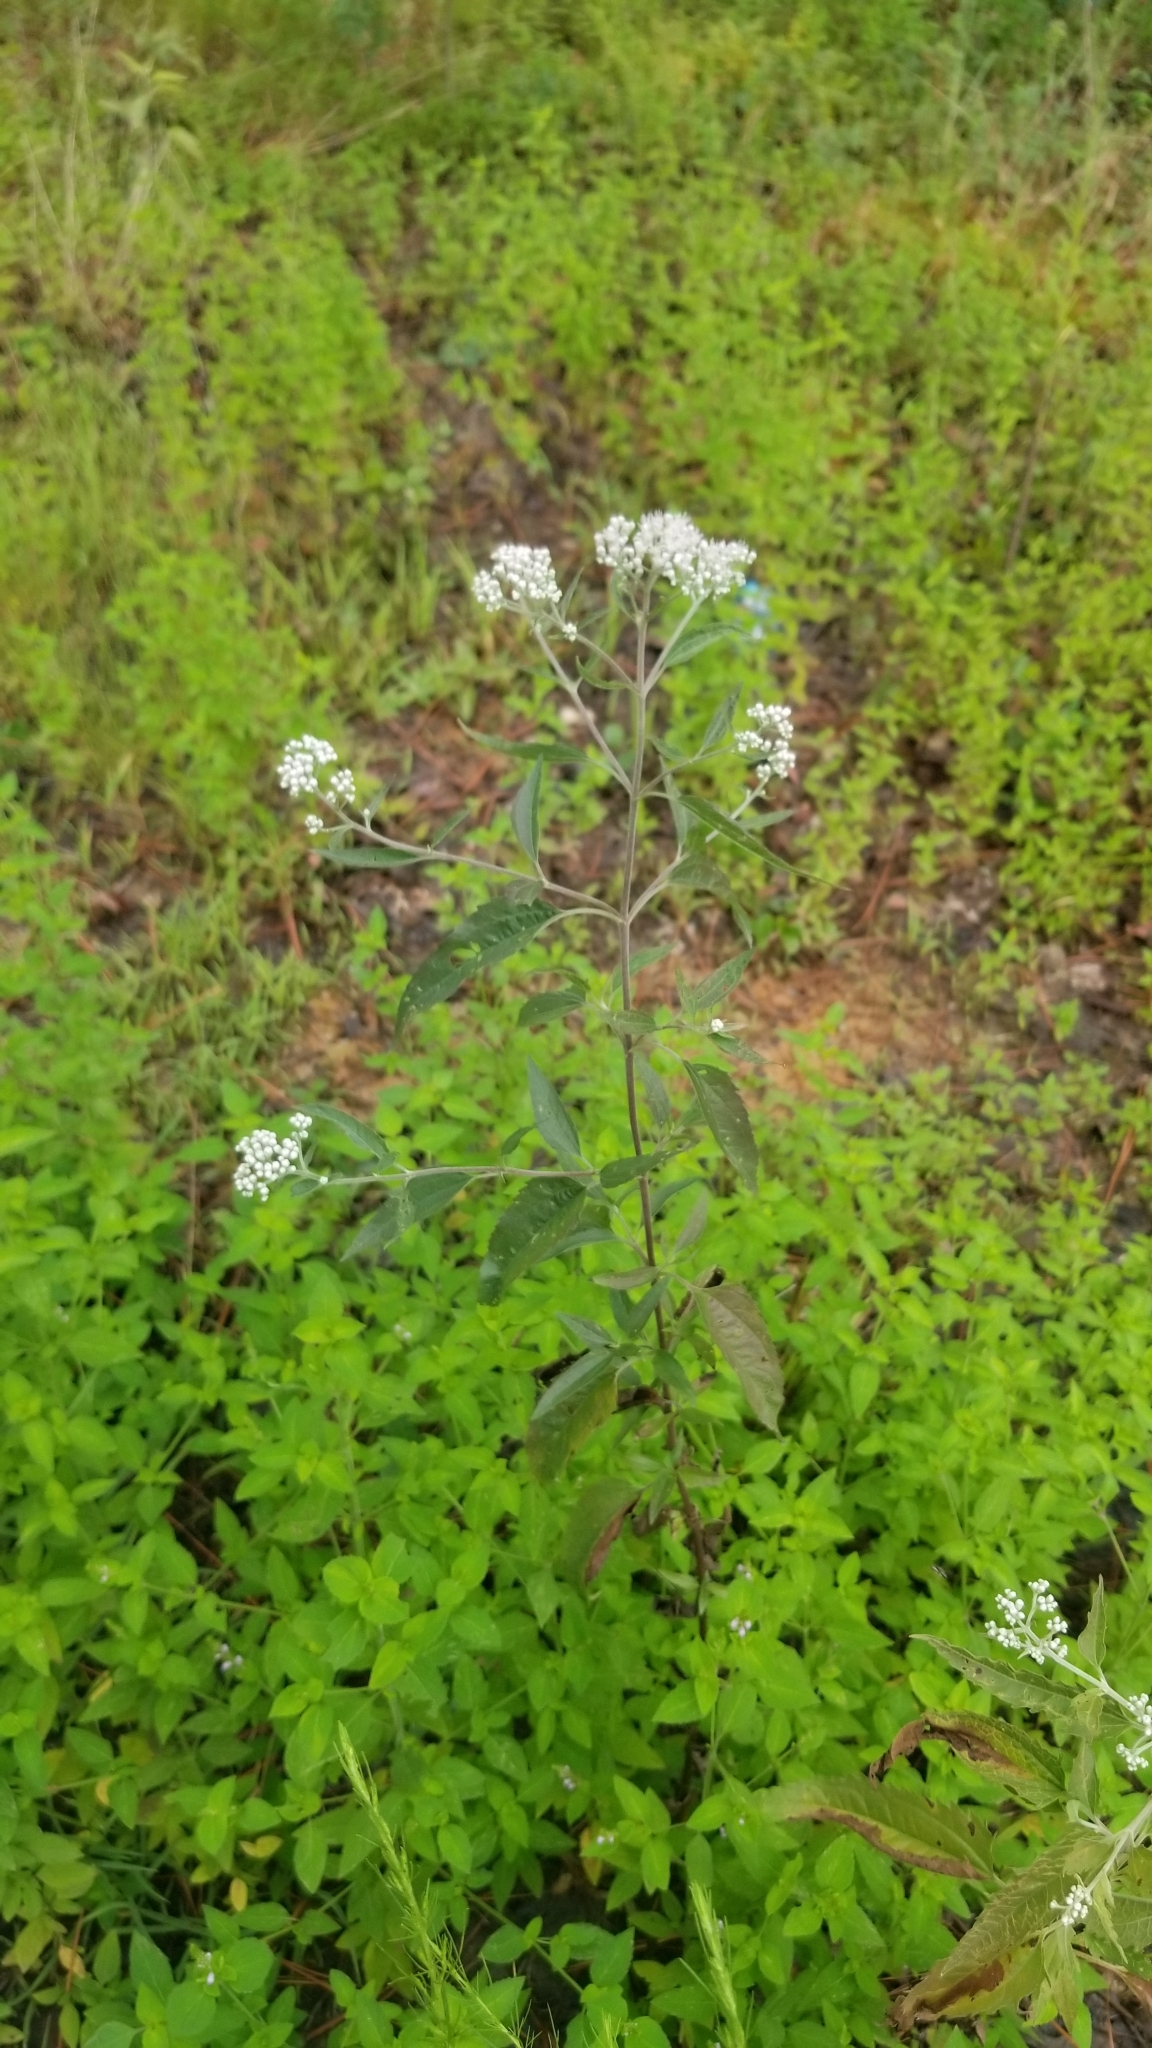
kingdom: Plantae
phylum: Tracheophyta
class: Magnoliopsida
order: Asterales
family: Asteraceae
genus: Eupatorium
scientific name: Eupatorium serotinum
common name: Late boneset
